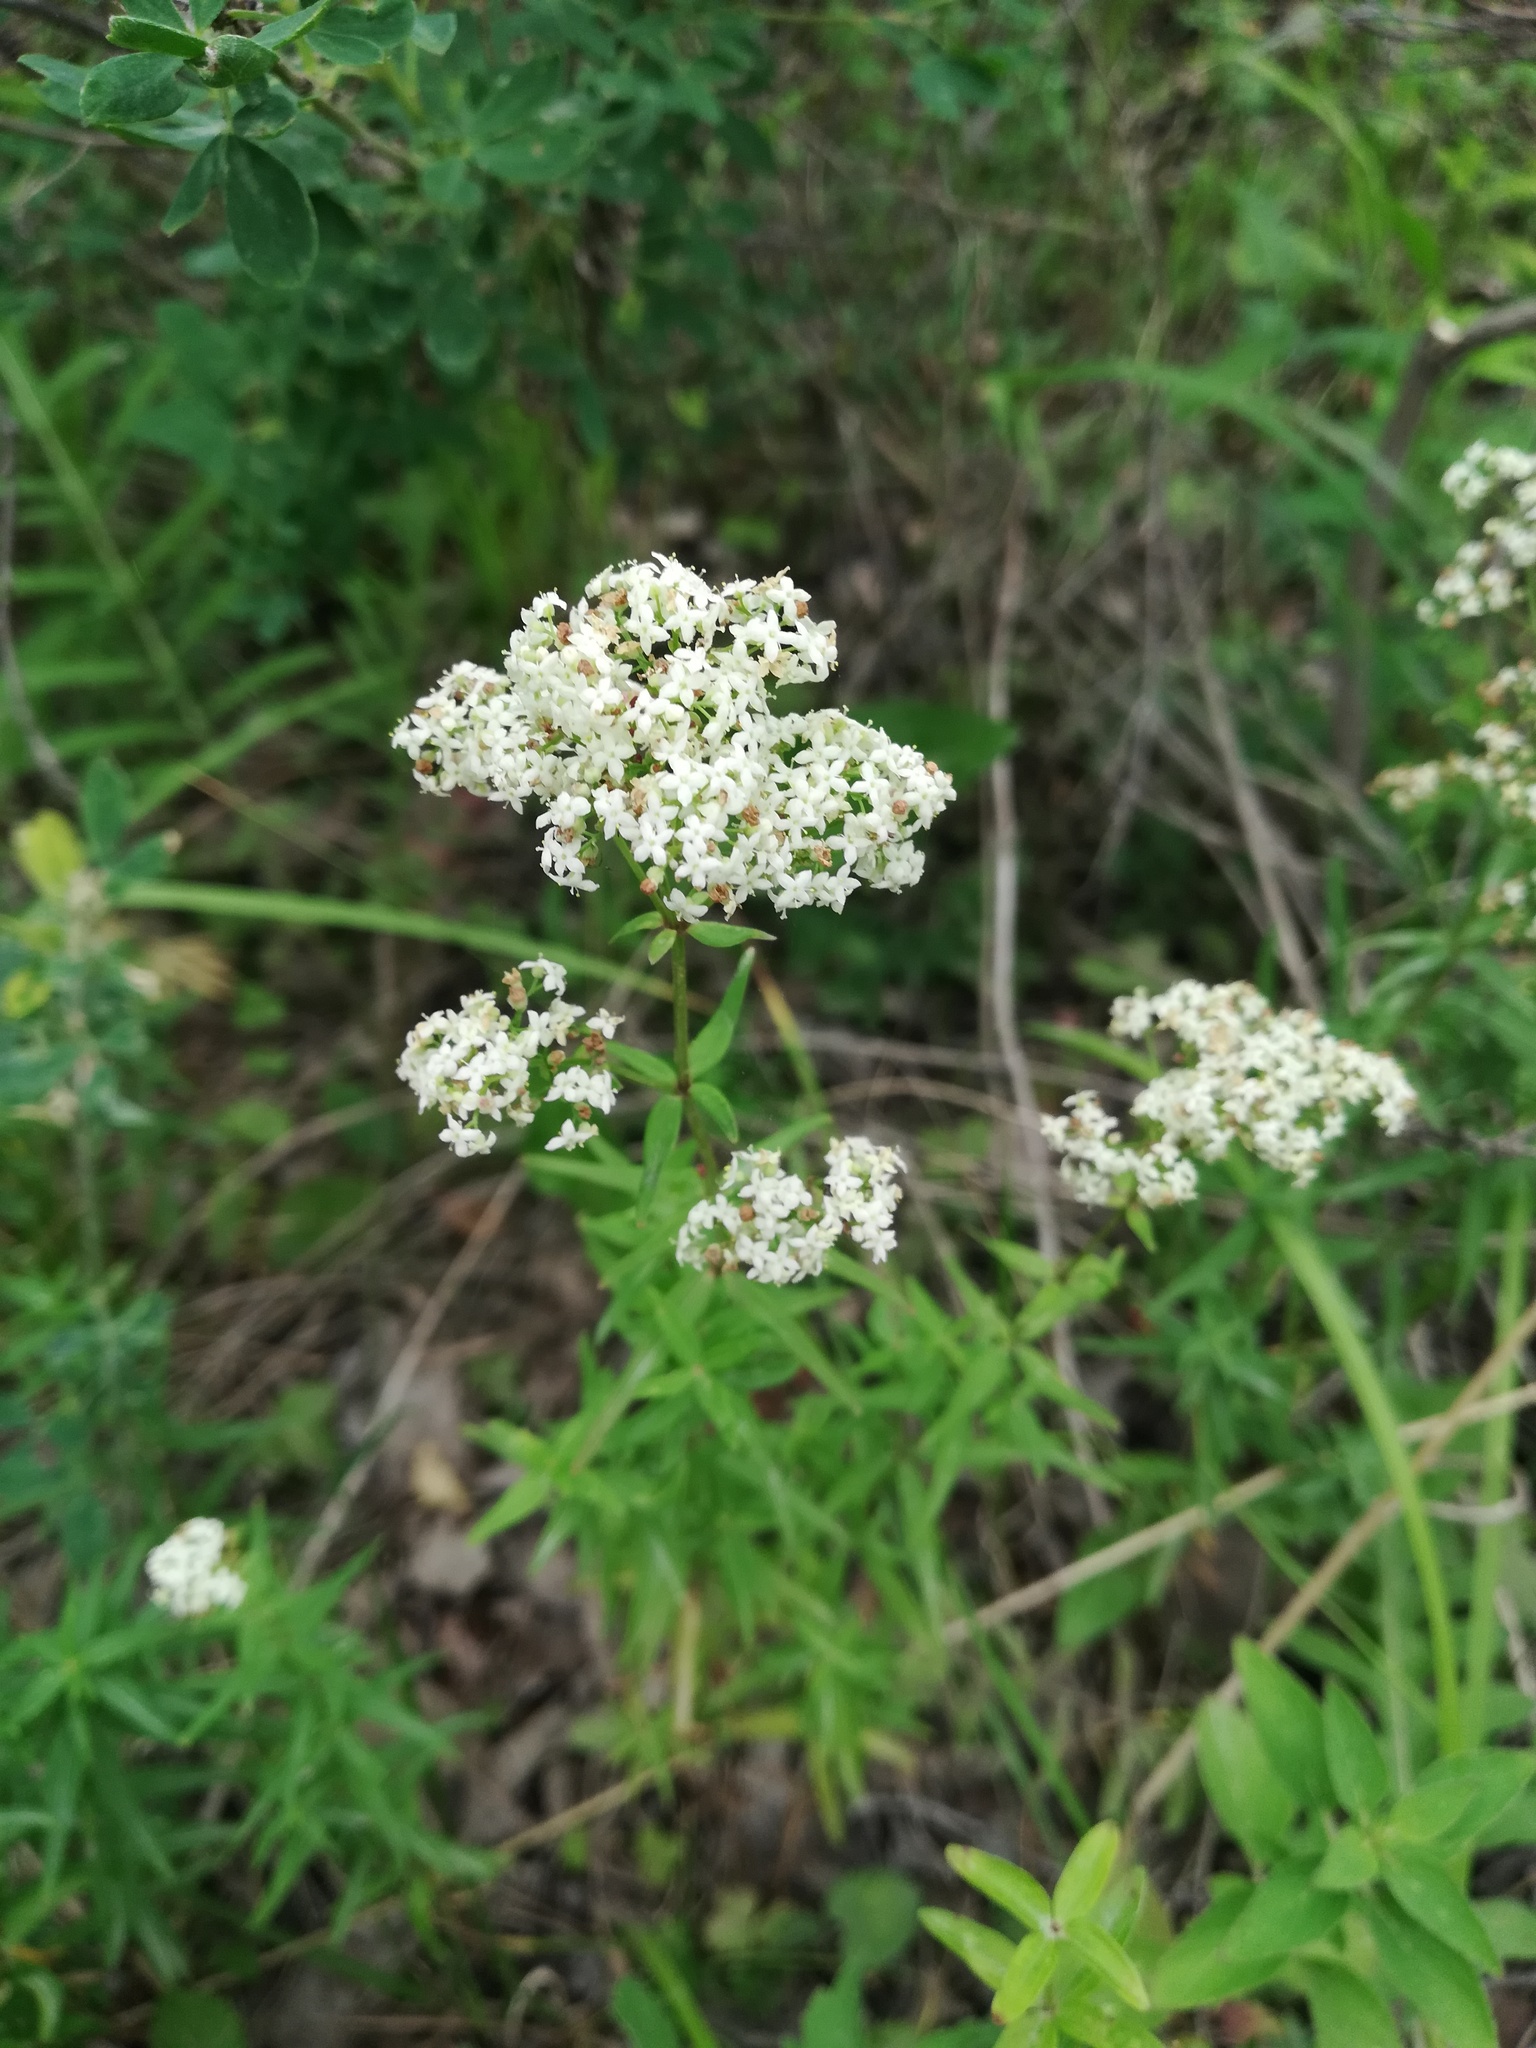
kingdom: Plantae
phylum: Tracheophyta
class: Magnoliopsida
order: Gentianales
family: Rubiaceae
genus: Galium
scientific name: Galium boreale
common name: Northern bedstraw
